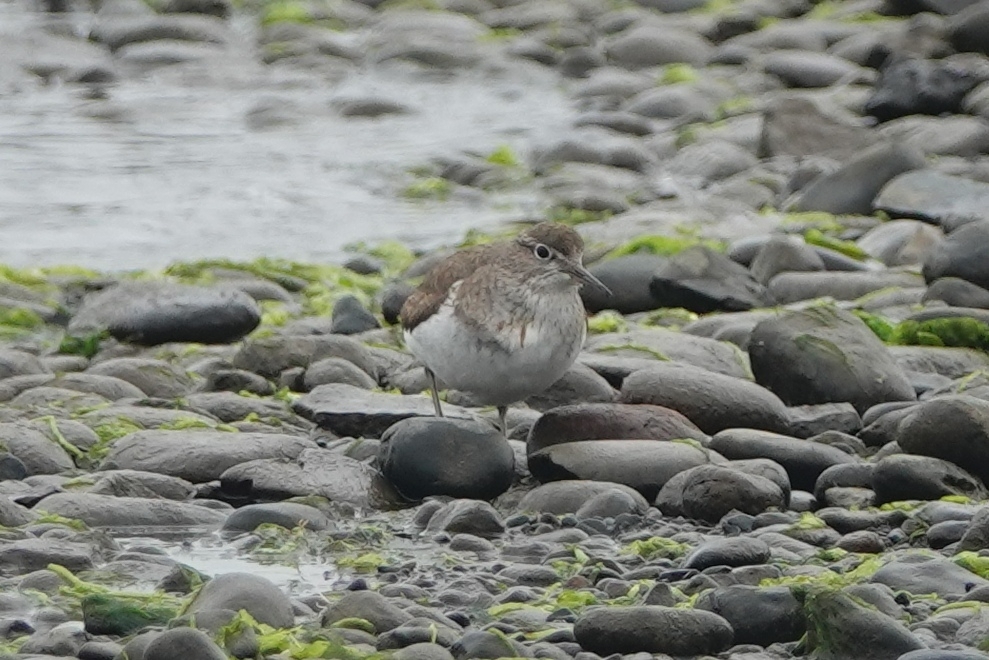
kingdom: Animalia
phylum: Chordata
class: Aves
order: Charadriiformes
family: Scolopacidae
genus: Actitis
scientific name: Actitis hypoleucos
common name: Common sandpiper
